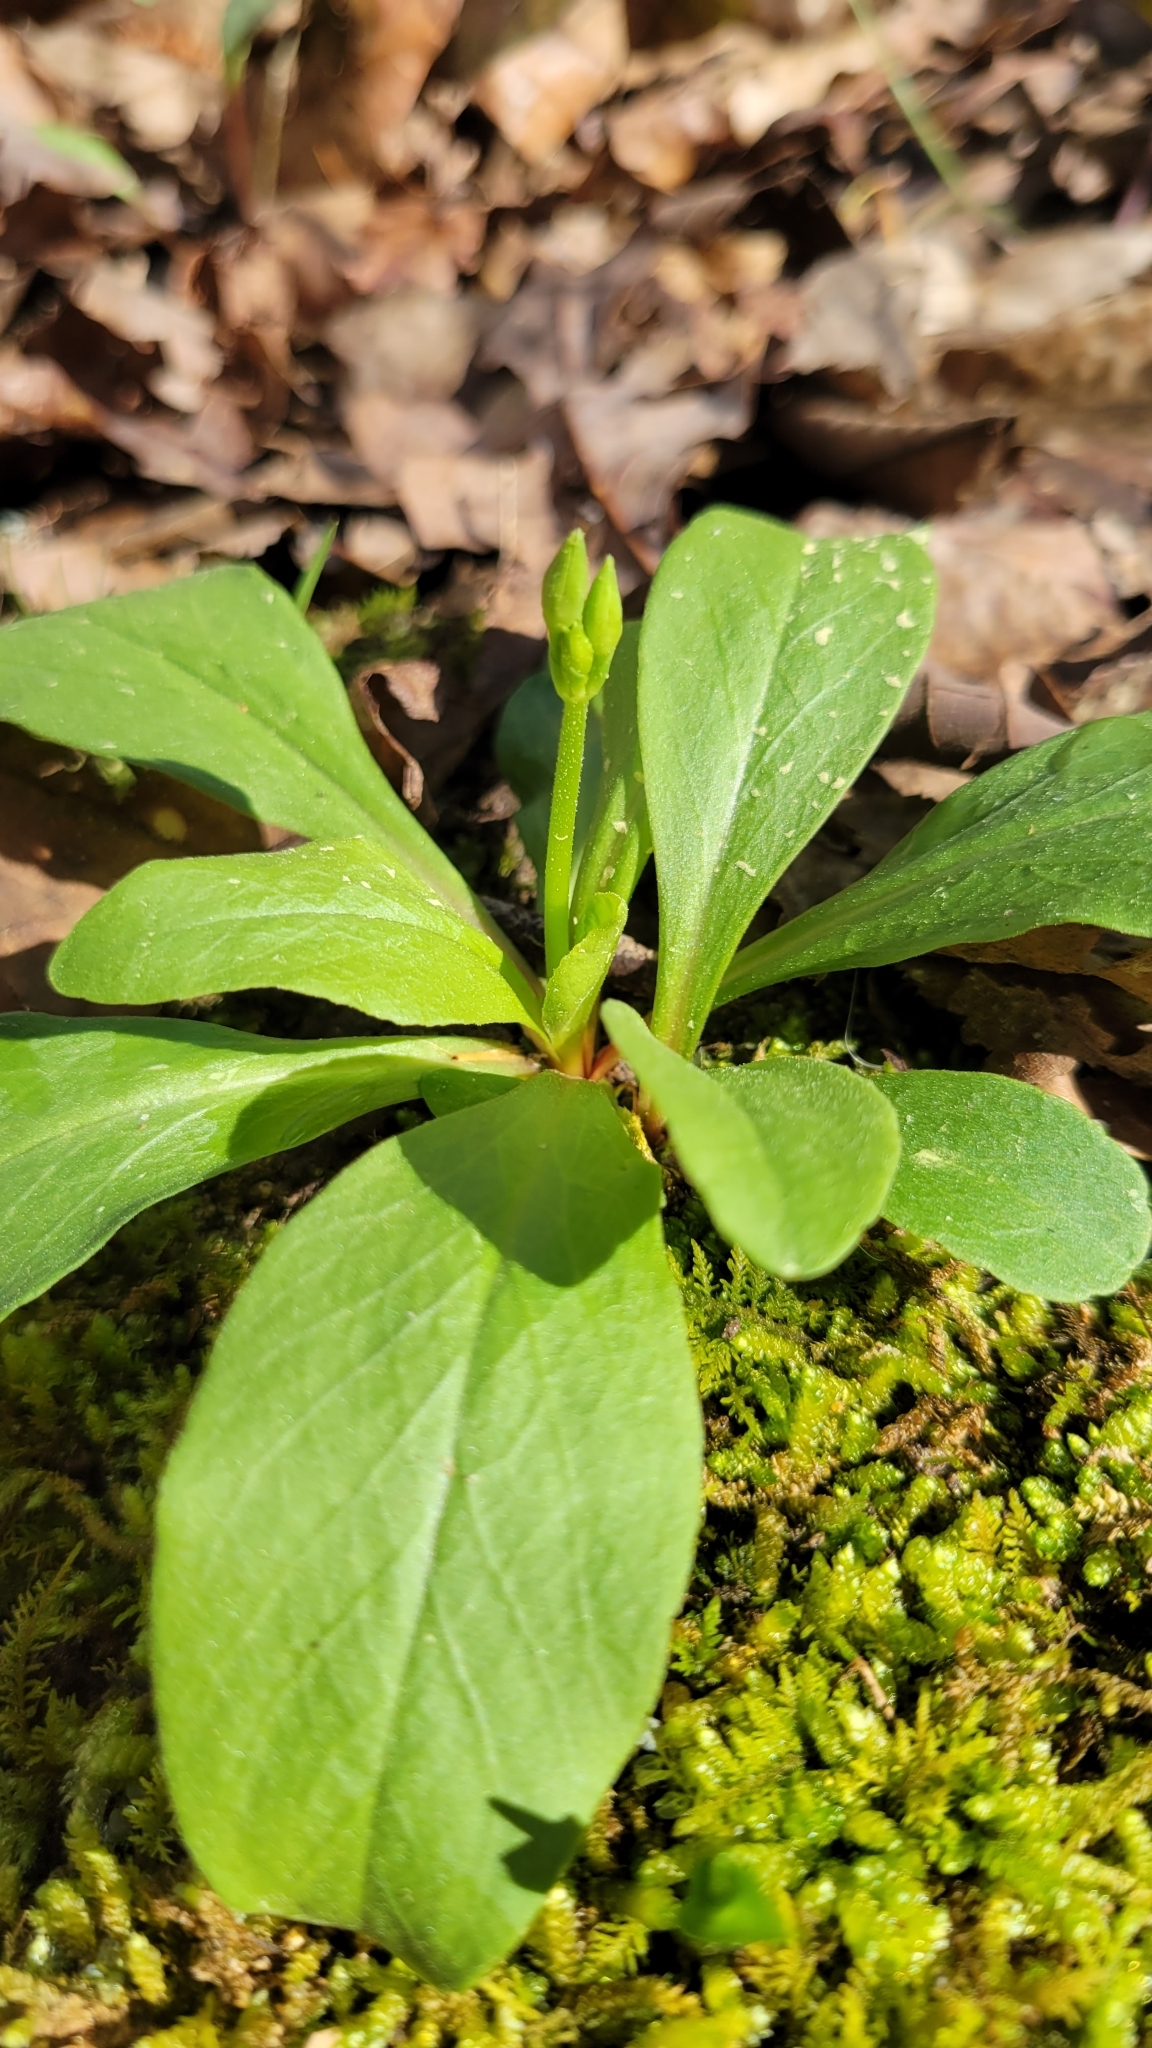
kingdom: Plantae
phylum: Tracheophyta
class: Magnoliopsida
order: Ericales
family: Primulaceae
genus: Dodecatheon
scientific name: Dodecatheon meadia
